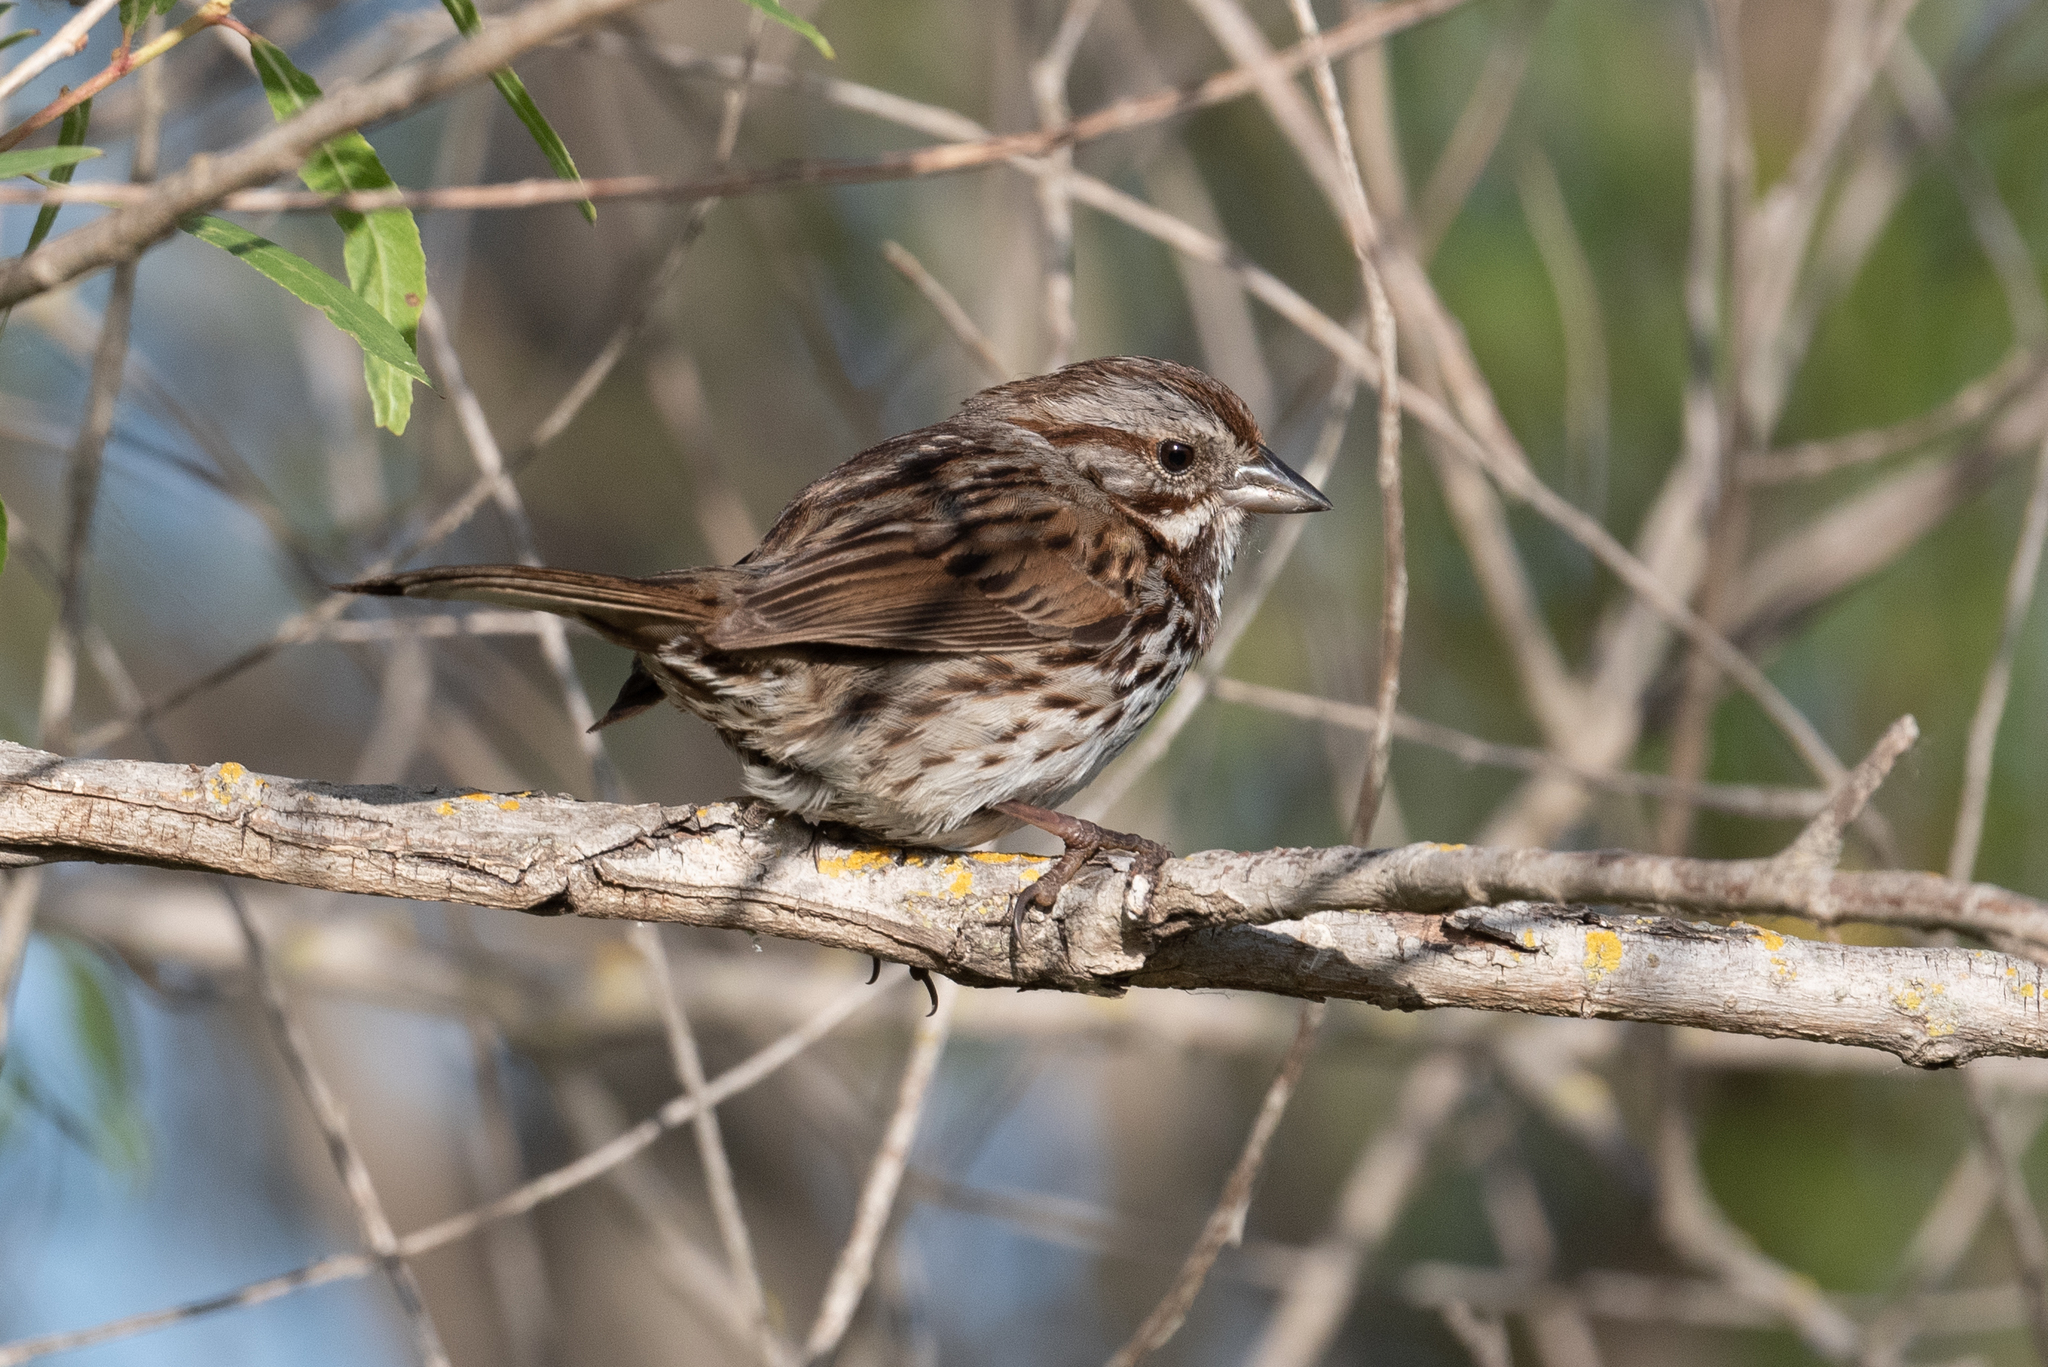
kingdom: Animalia
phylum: Chordata
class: Aves
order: Passeriformes
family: Passerellidae
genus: Melospiza
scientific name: Melospiza melodia
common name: Song sparrow
